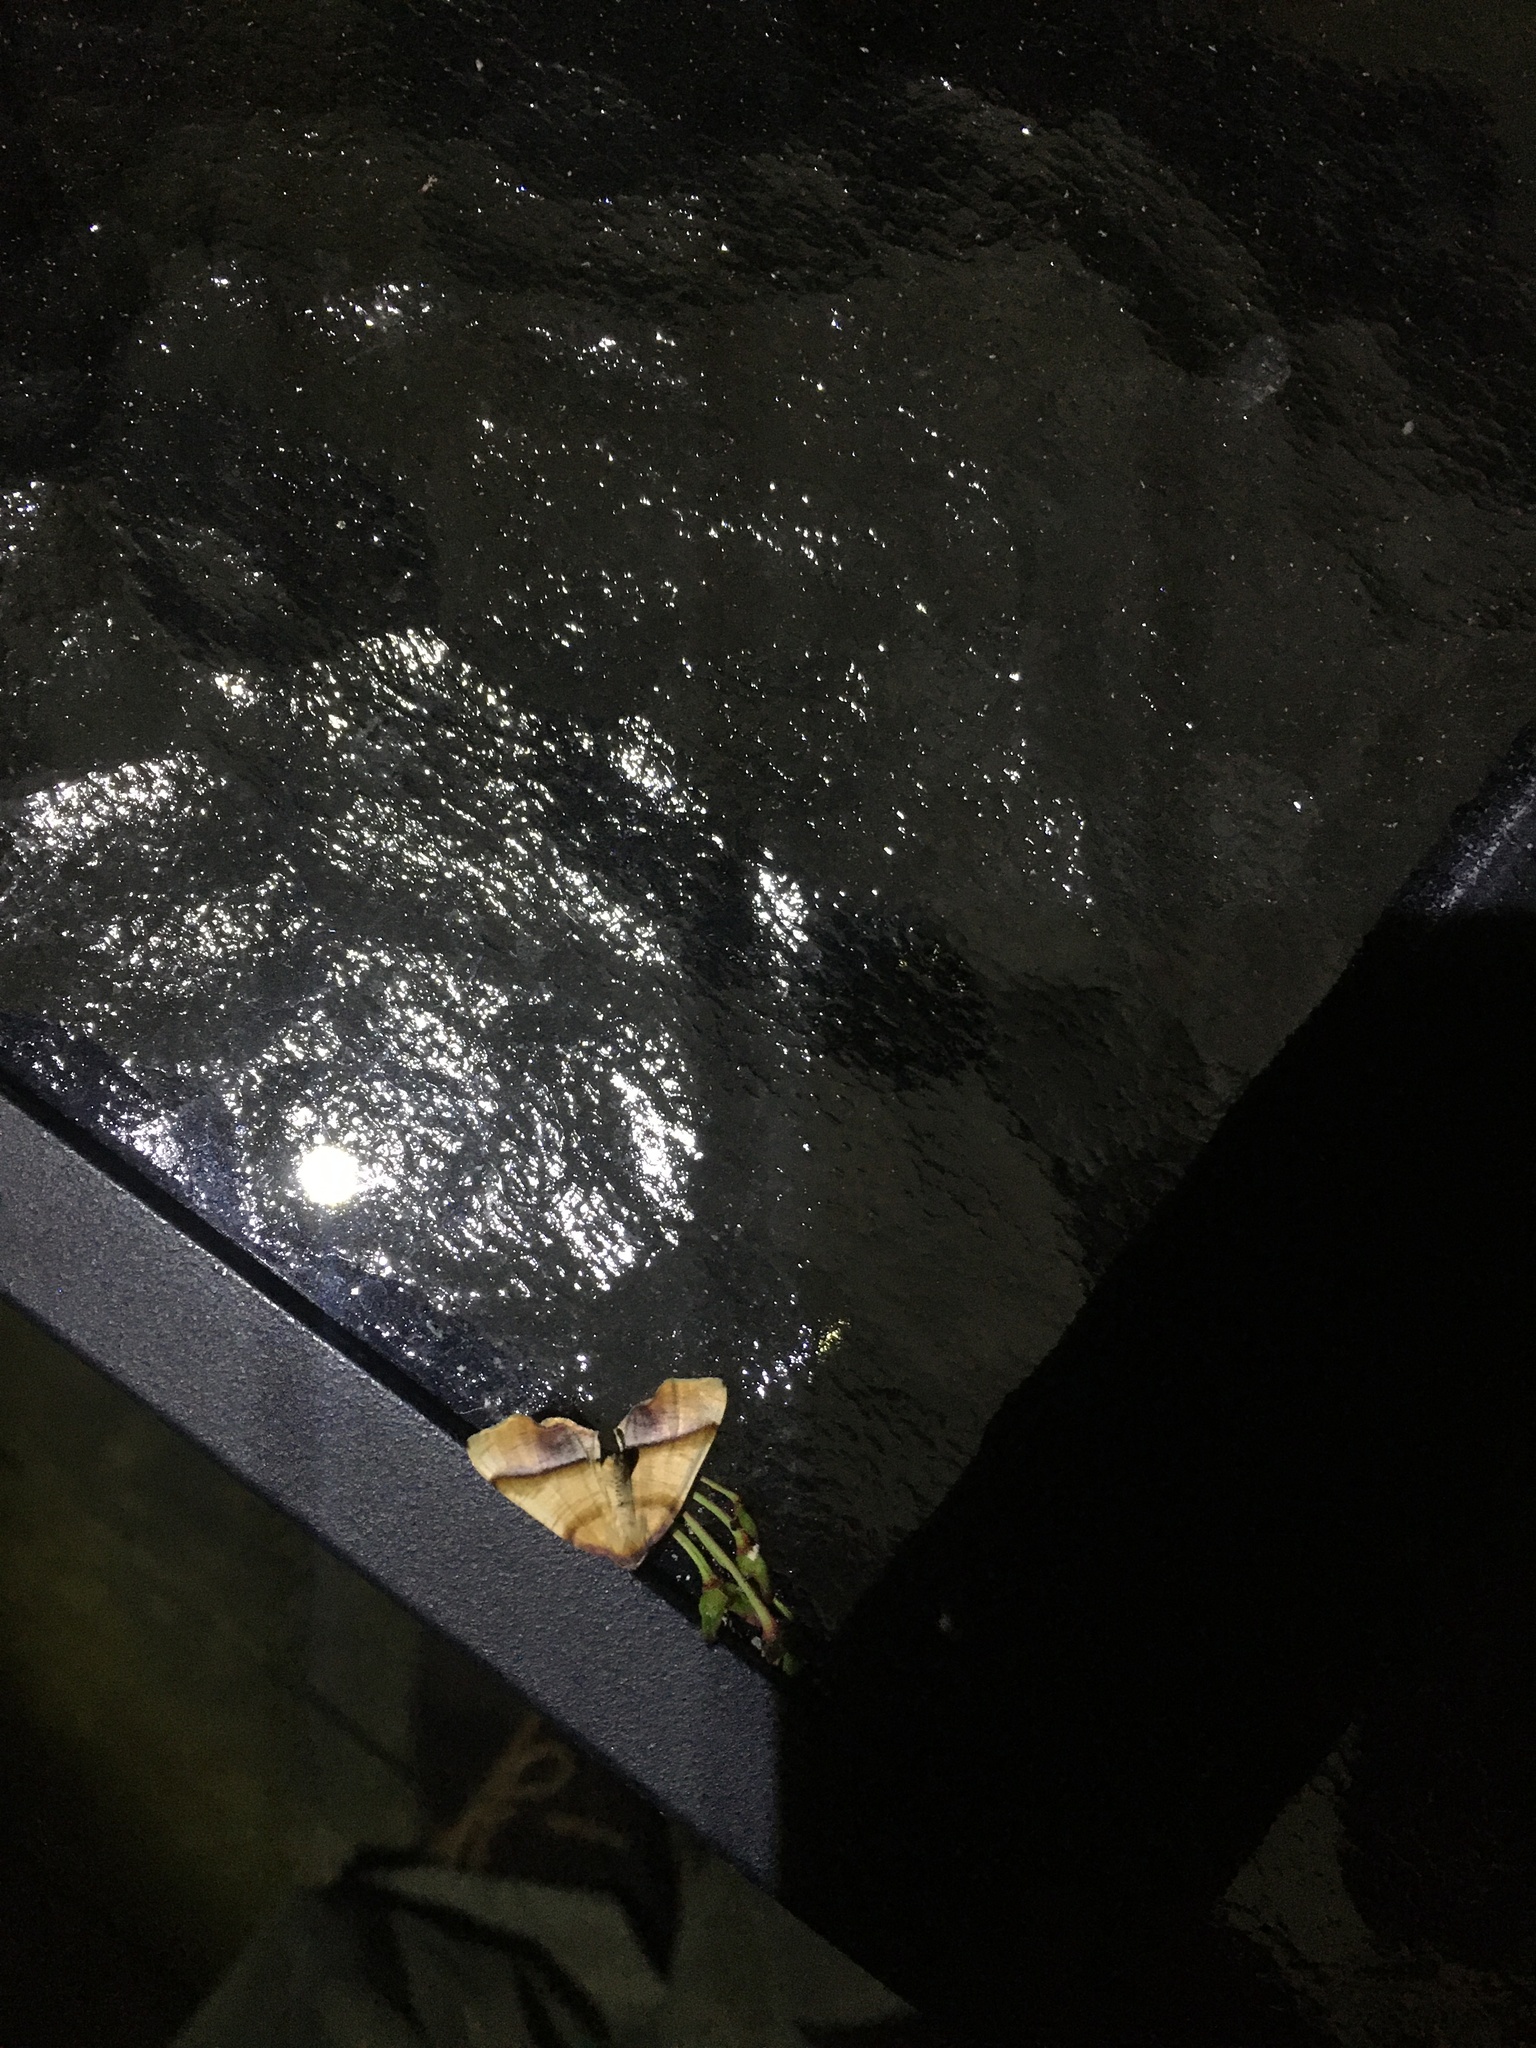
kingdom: Animalia
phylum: Arthropoda
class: Insecta
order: Lepidoptera
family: Geometridae
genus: Plagodis
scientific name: Plagodis phlogosaria
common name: Straight-lined plagodis
